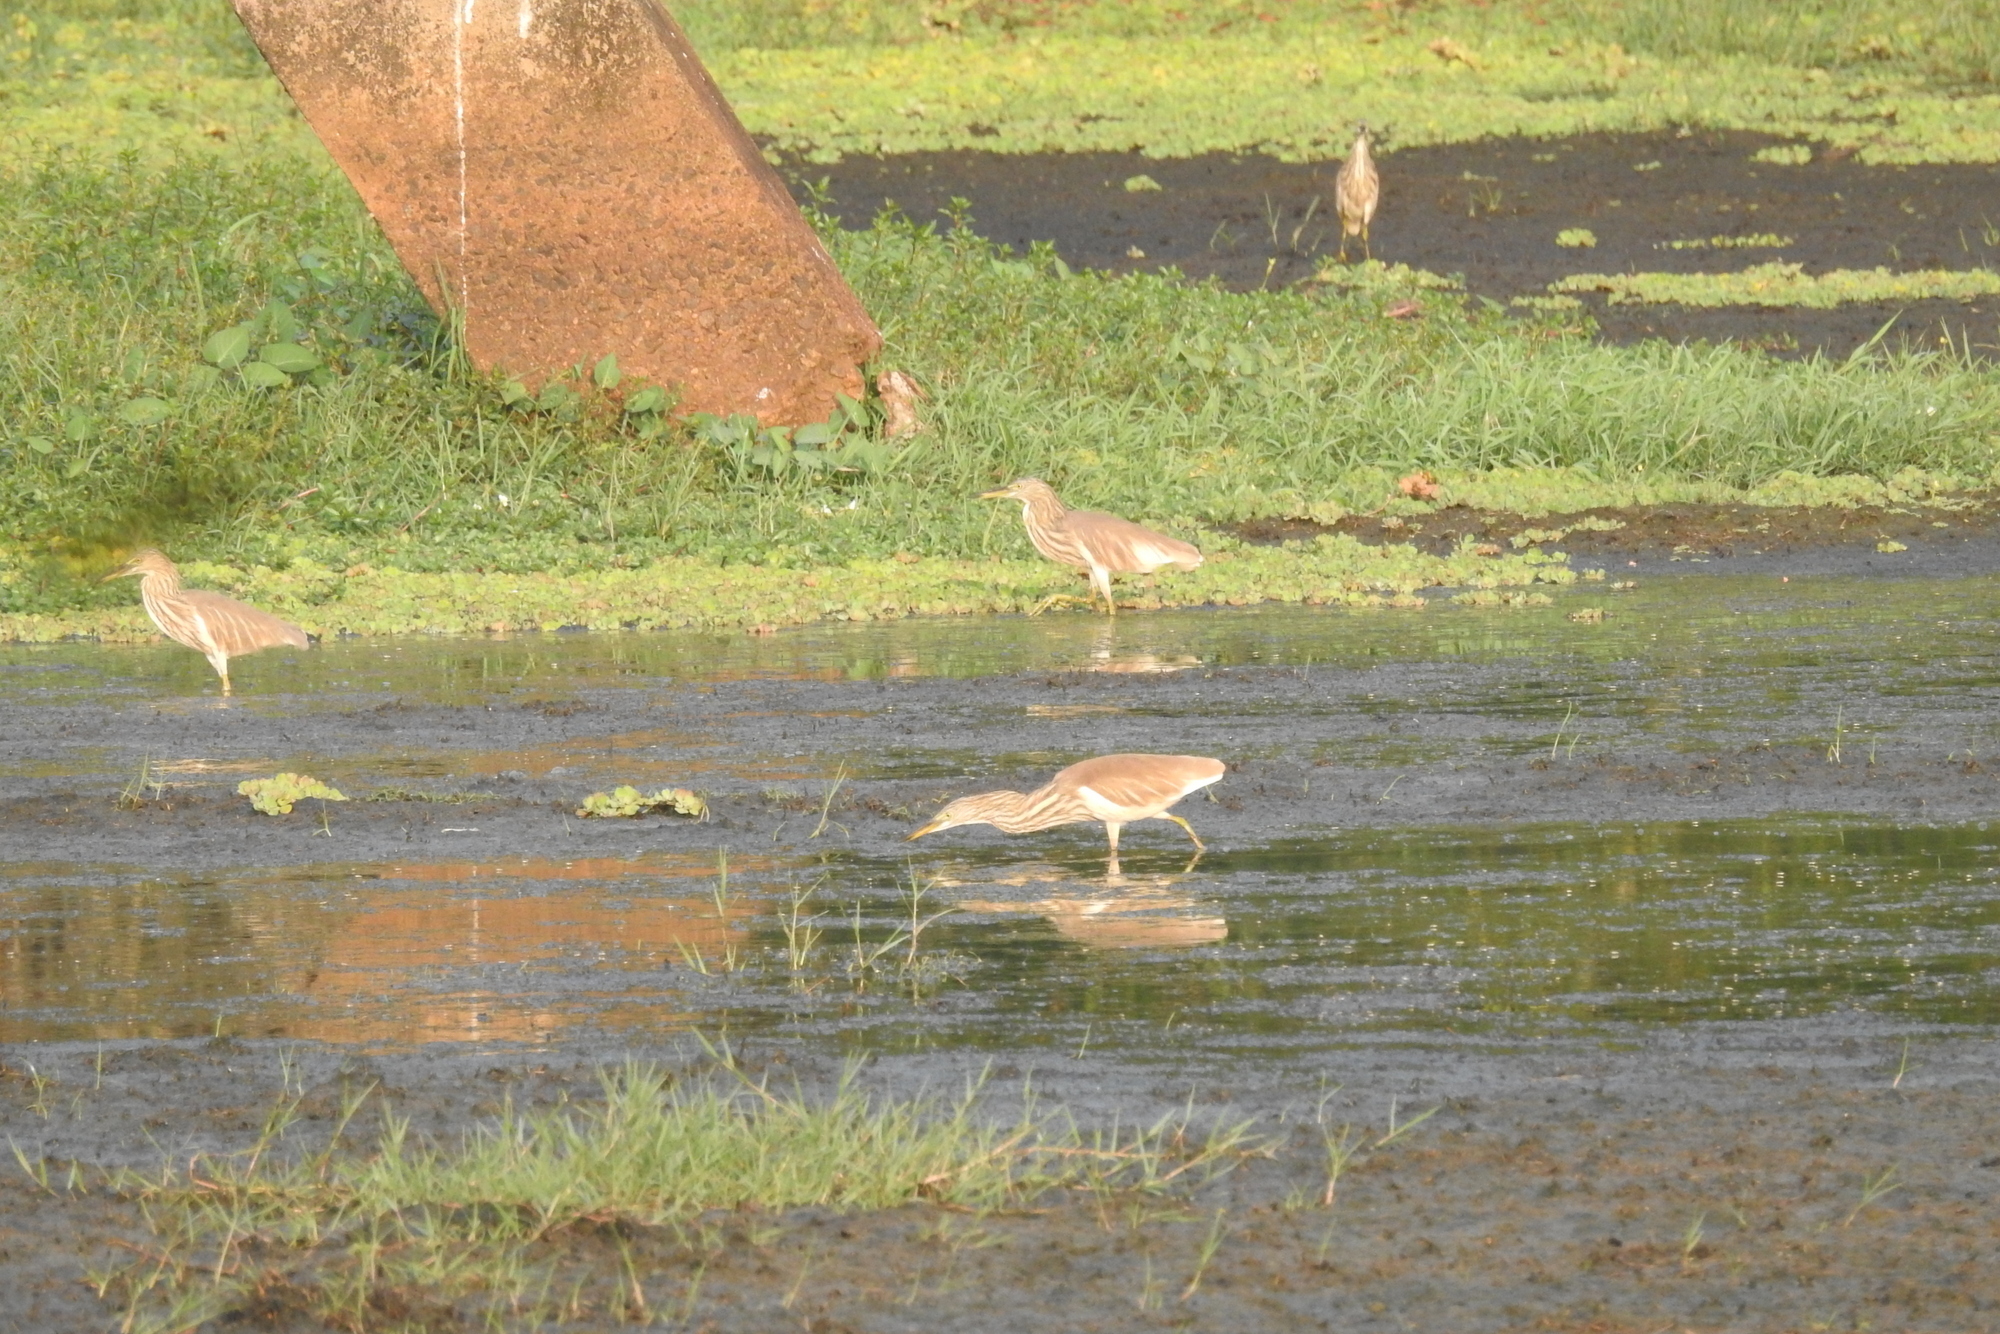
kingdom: Animalia
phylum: Chordata
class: Aves
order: Pelecaniformes
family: Ardeidae
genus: Ardeola
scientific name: Ardeola grayii
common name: Indian pond heron
